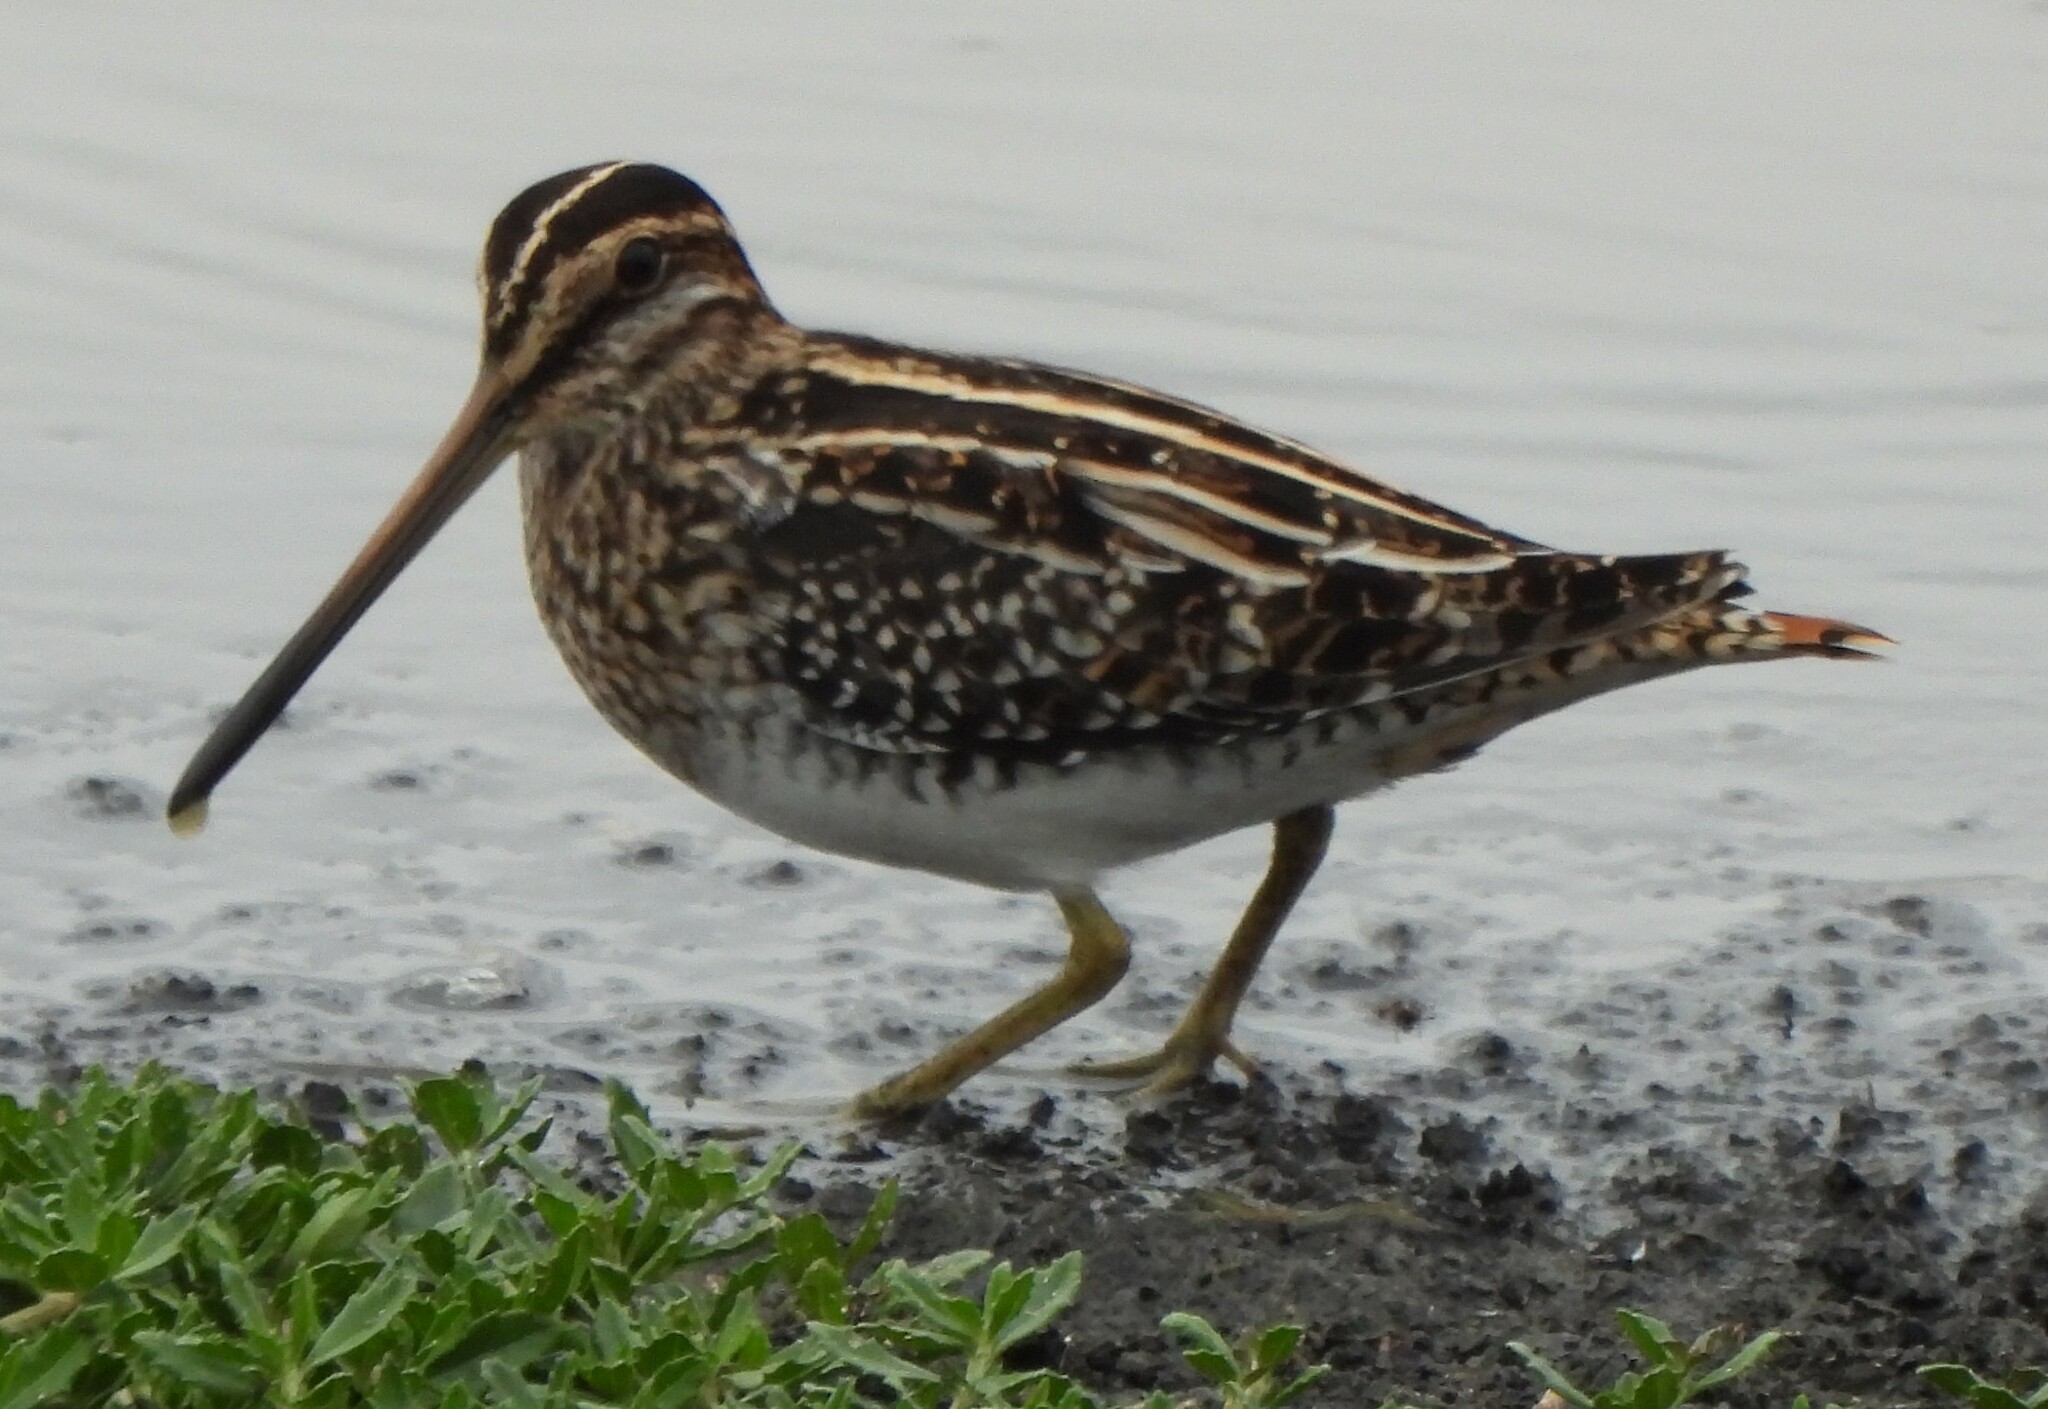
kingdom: Animalia
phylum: Chordata
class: Aves
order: Charadriiformes
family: Scolopacidae
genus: Gallinago
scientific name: Gallinago delicata
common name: Wilson's snipe
